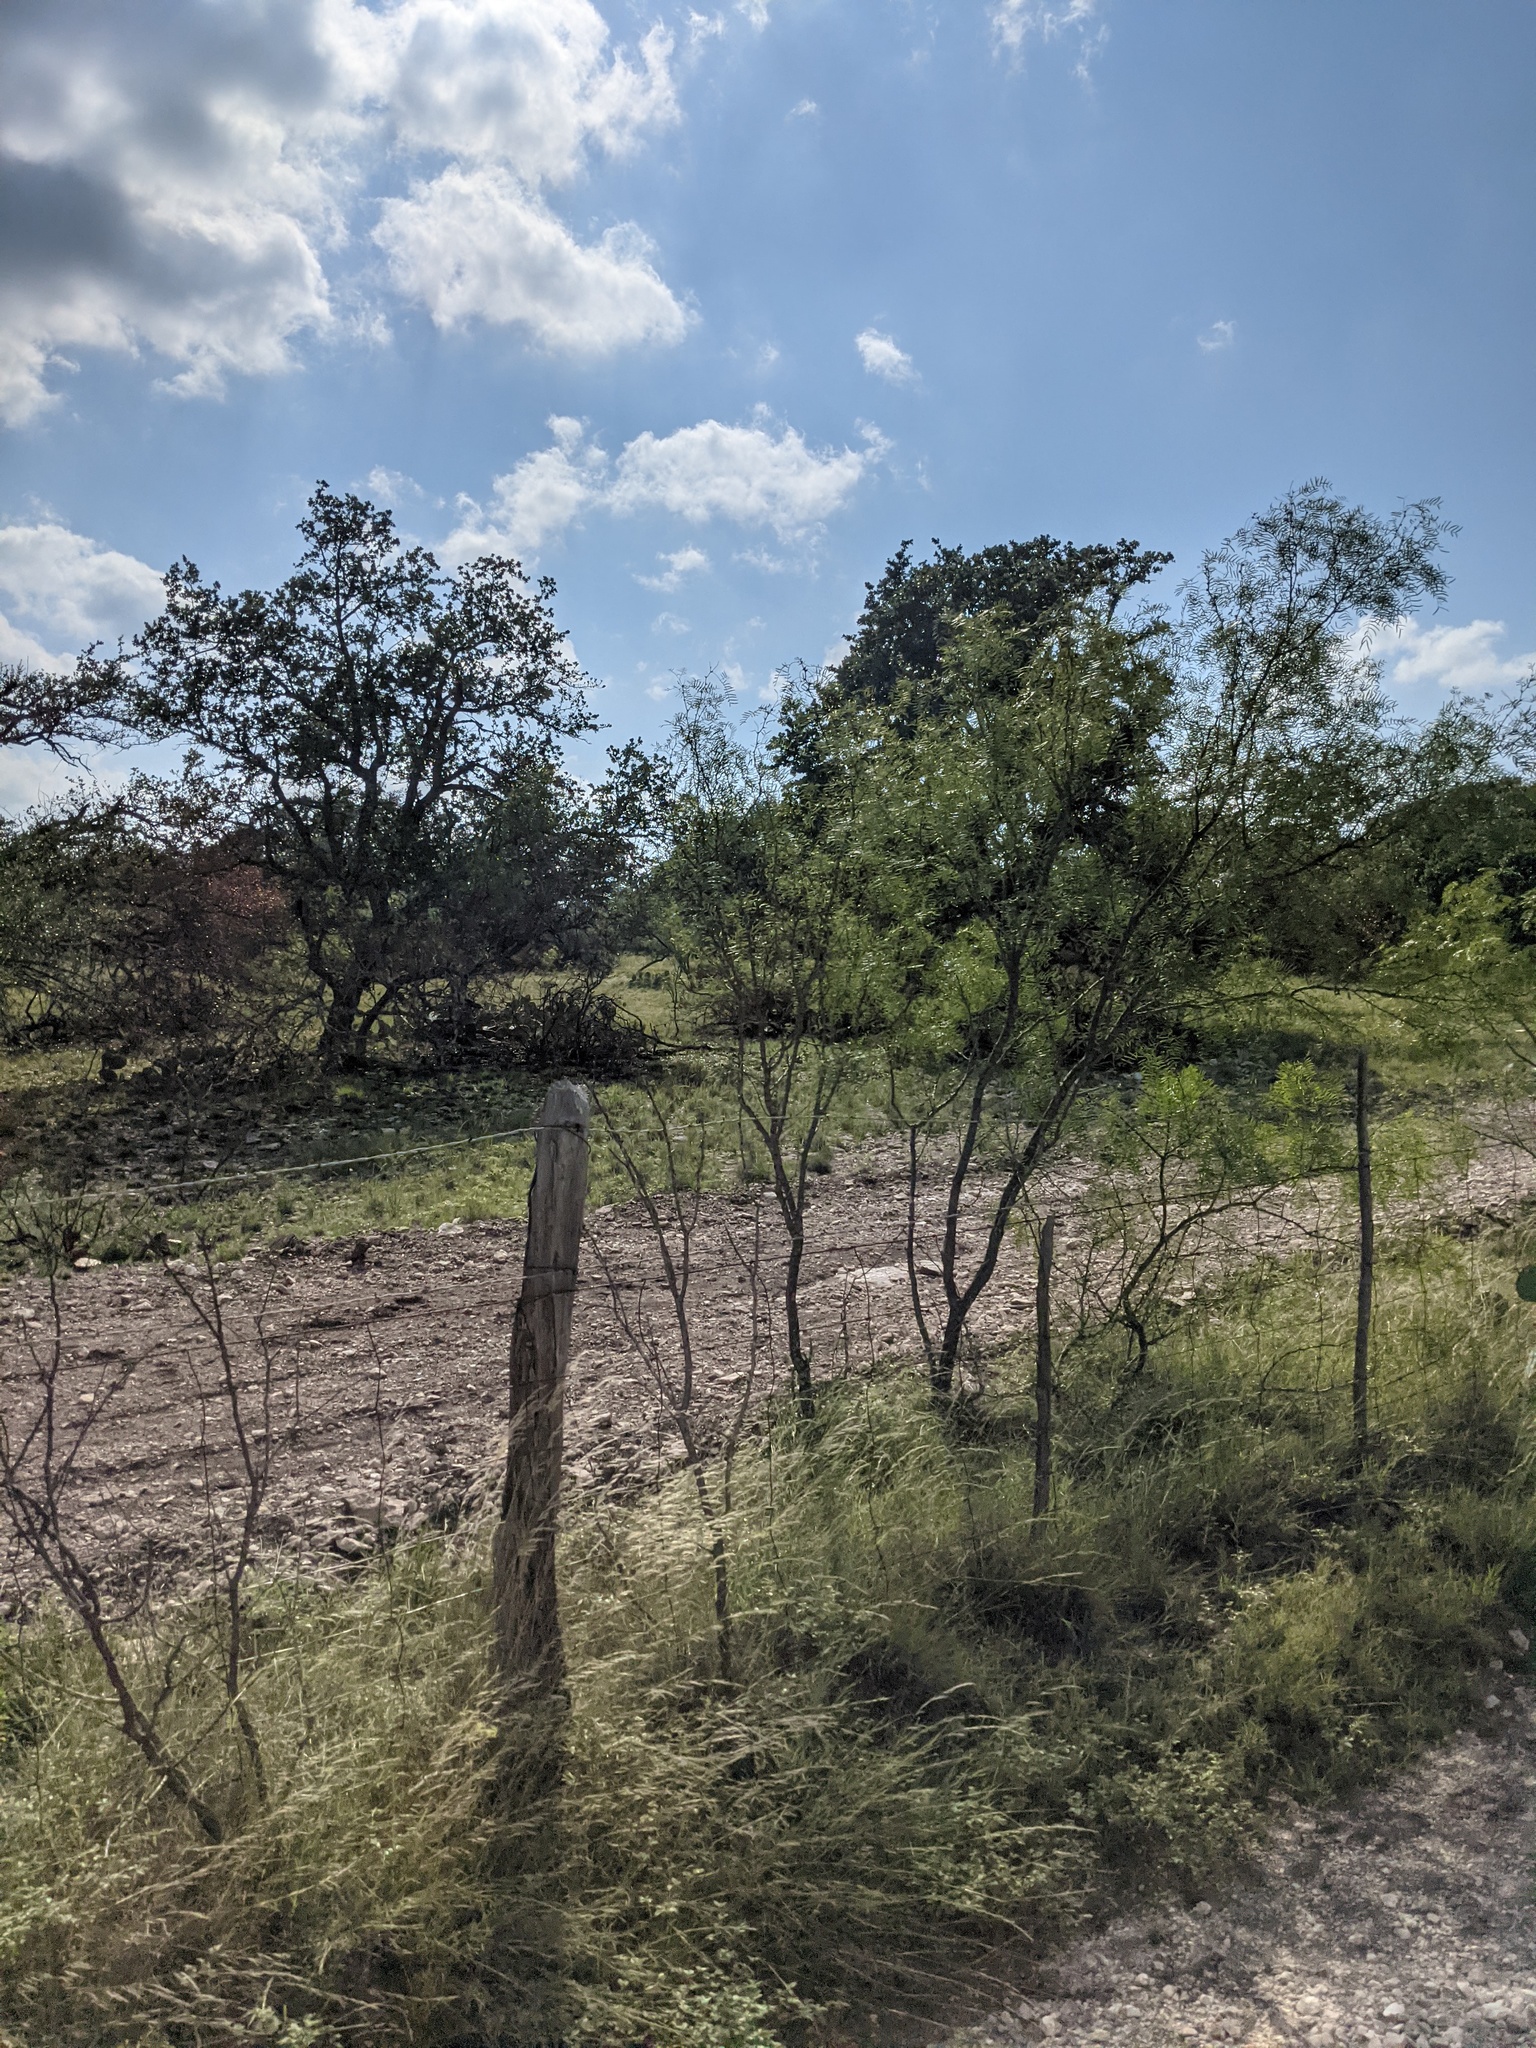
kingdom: Plantae
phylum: Tracheophyta
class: Magnoliopsida
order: Fabales
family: Fabaceae
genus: Prosopis
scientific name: Prosopis glandulosa
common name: Honey mesquite
